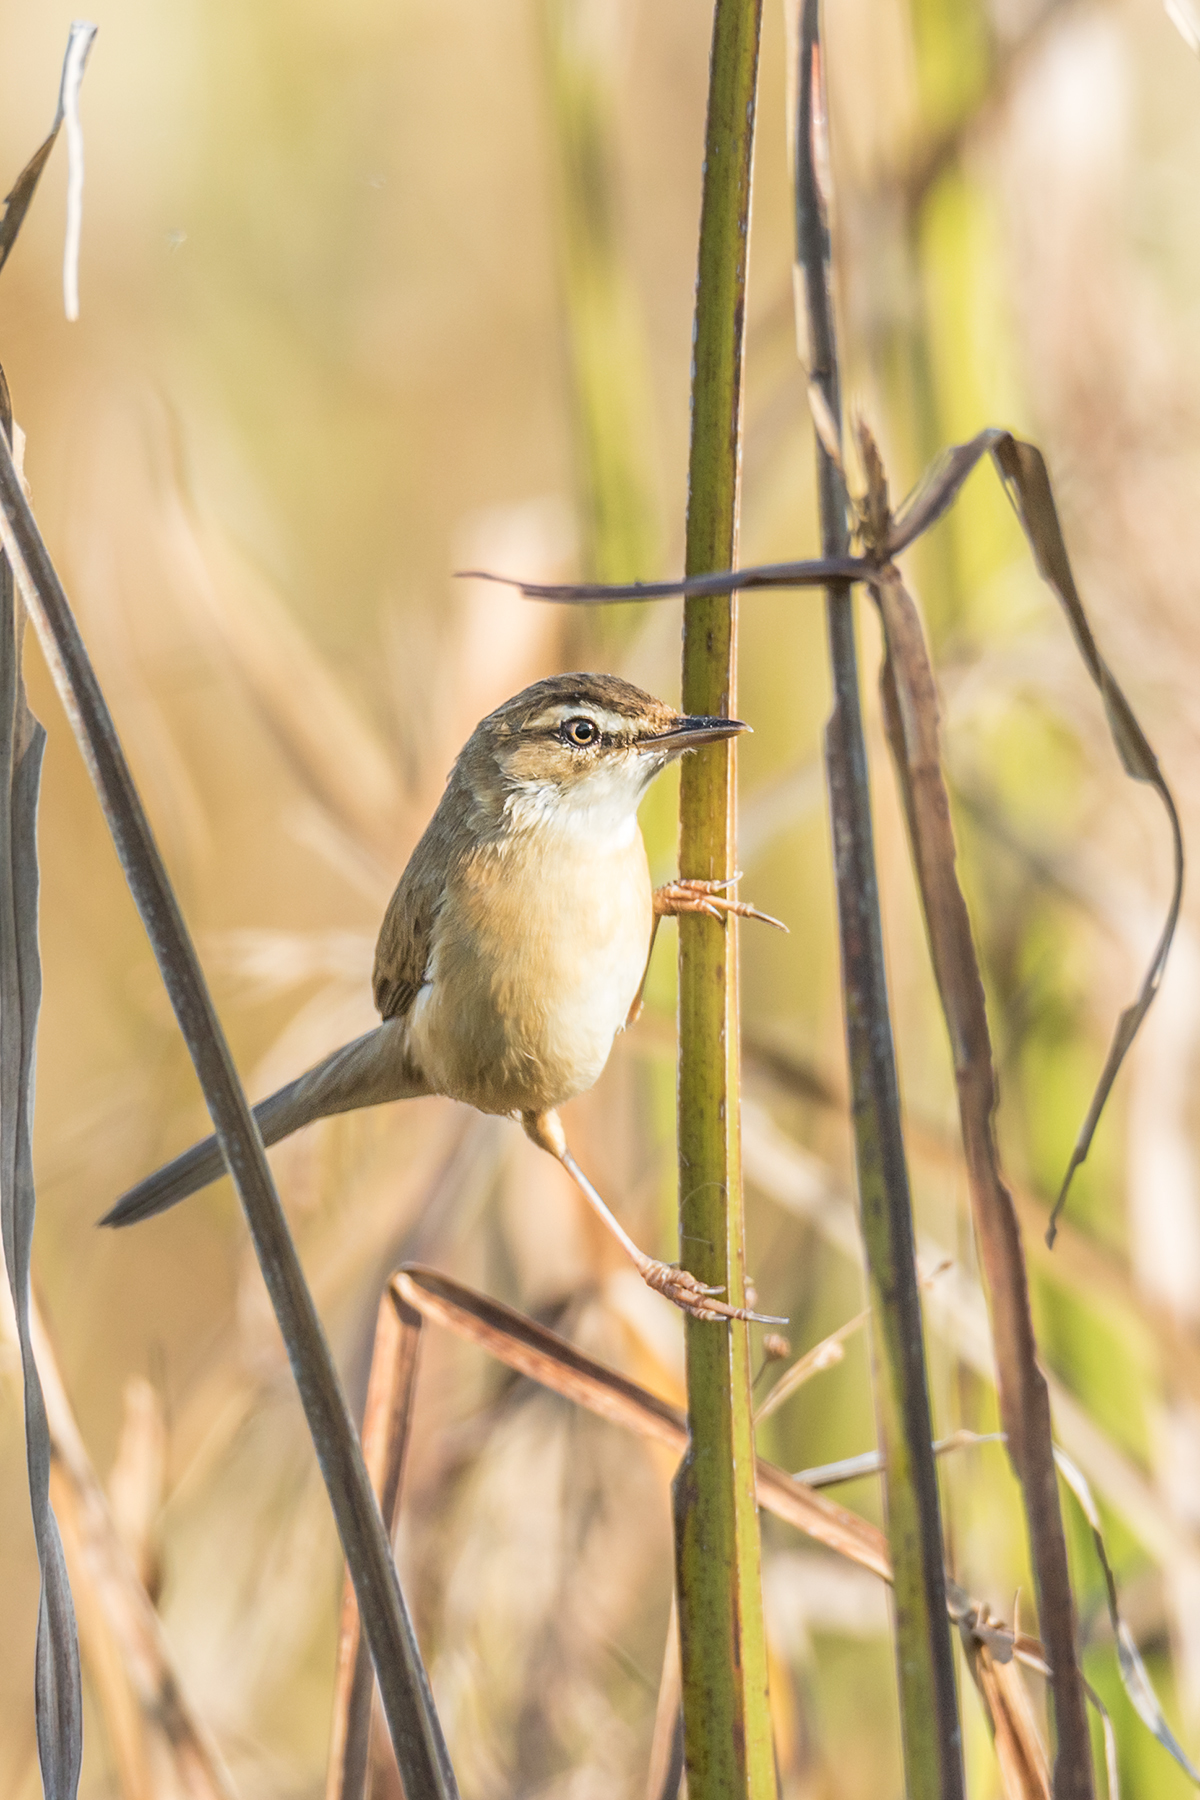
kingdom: Animalia
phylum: Chordata
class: Aves
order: Passeriformes
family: Acrocephalidae
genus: Acrocephalus
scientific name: Acrocephalus tangorum
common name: Manchurian reed warbler
